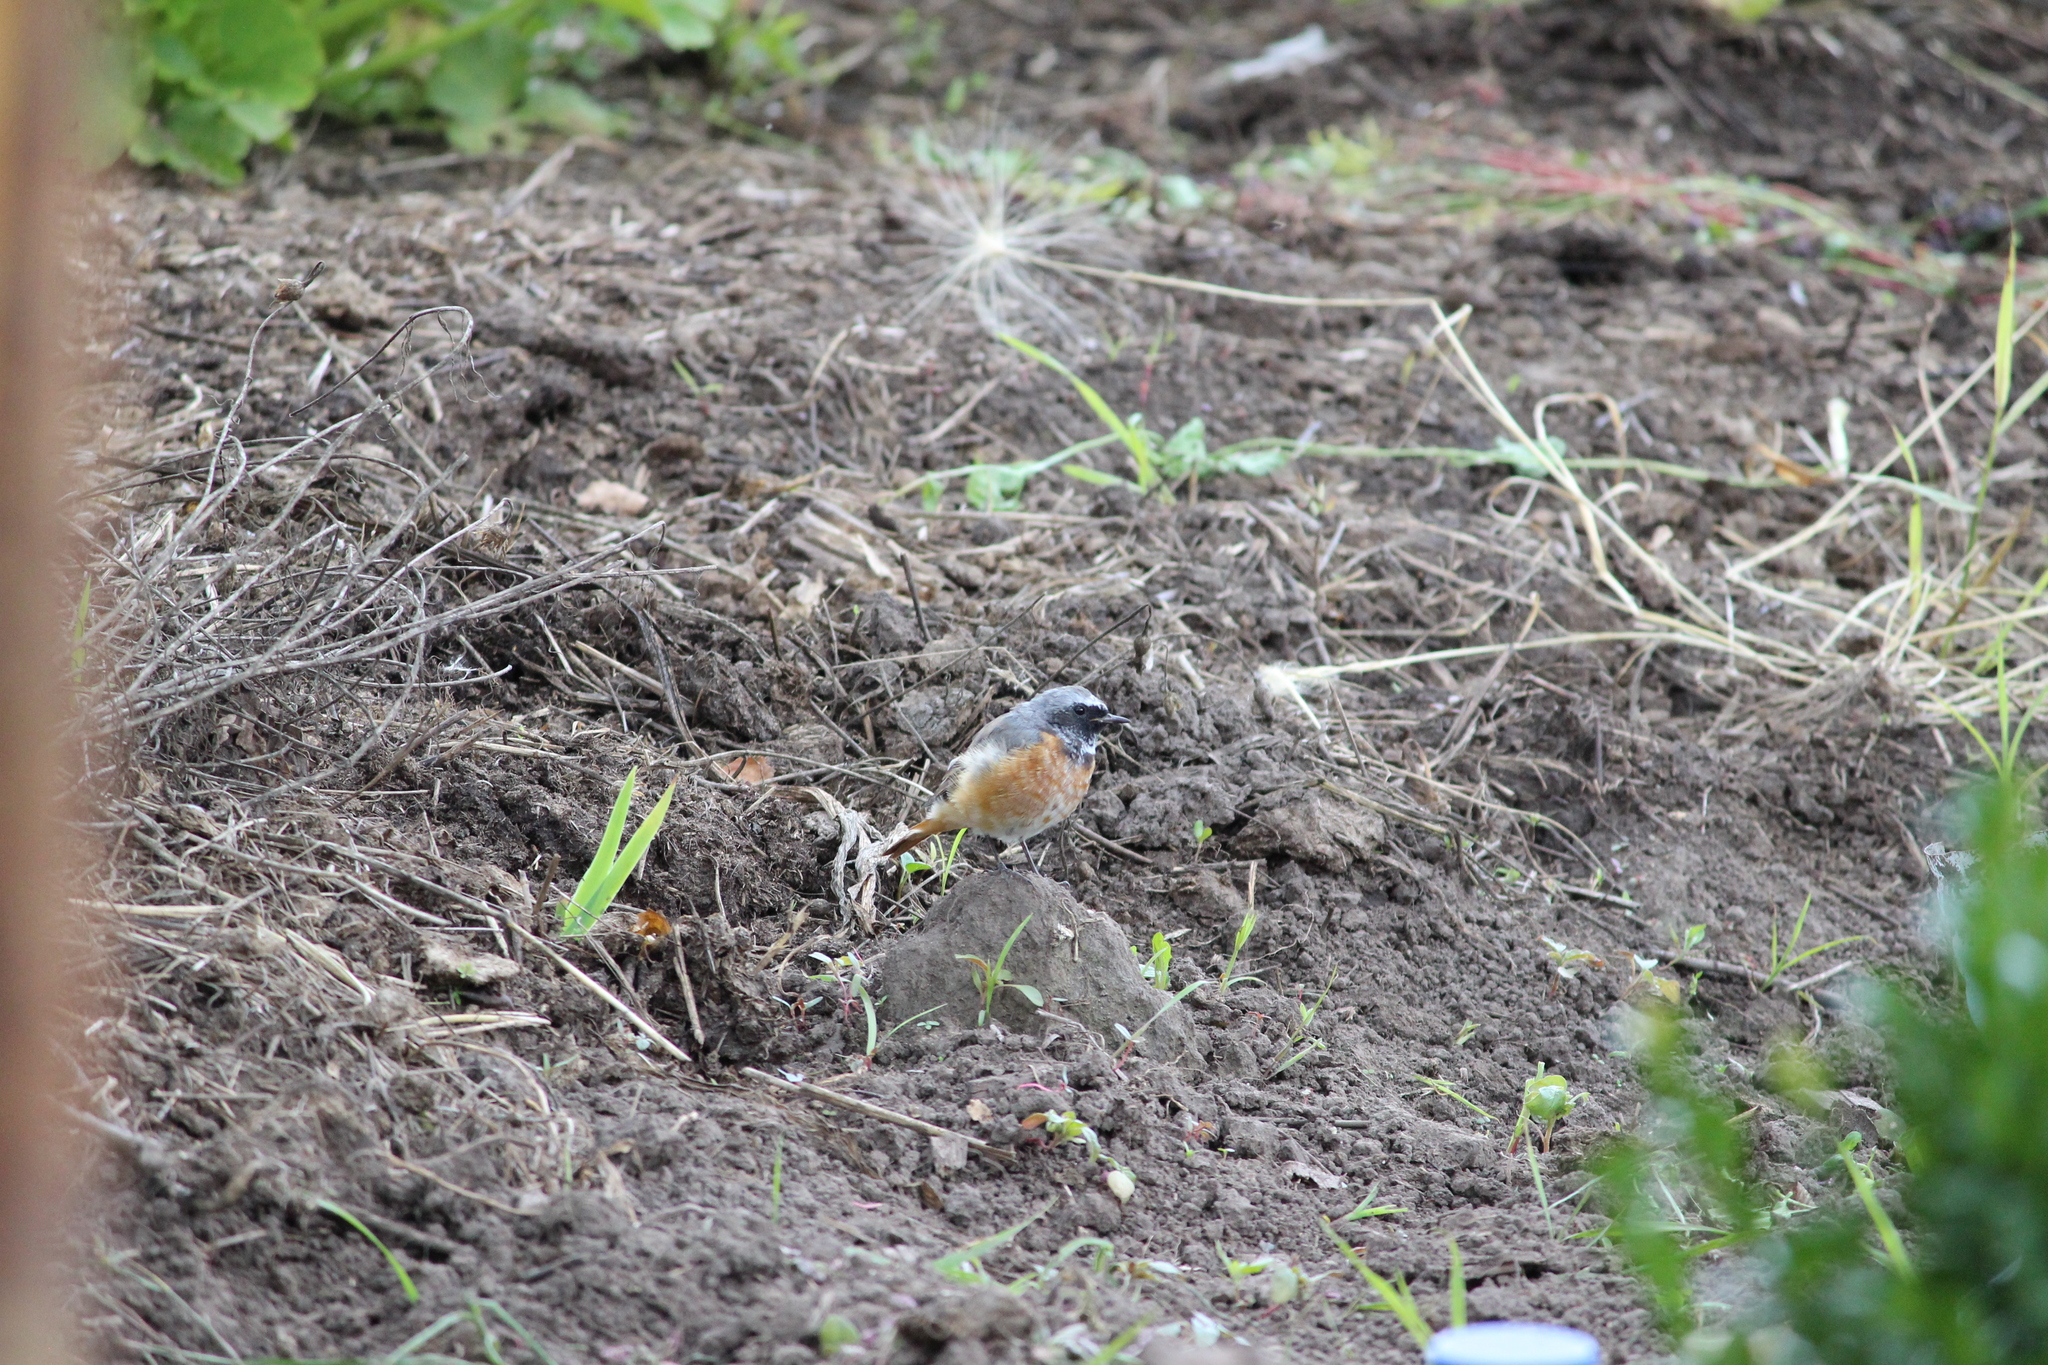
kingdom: Animalia
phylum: Chordata
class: Aves
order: Passeriformes
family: Muscicapidae
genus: Phoenicurus
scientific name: Phoenicurus phoenicurus
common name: Common redstart
